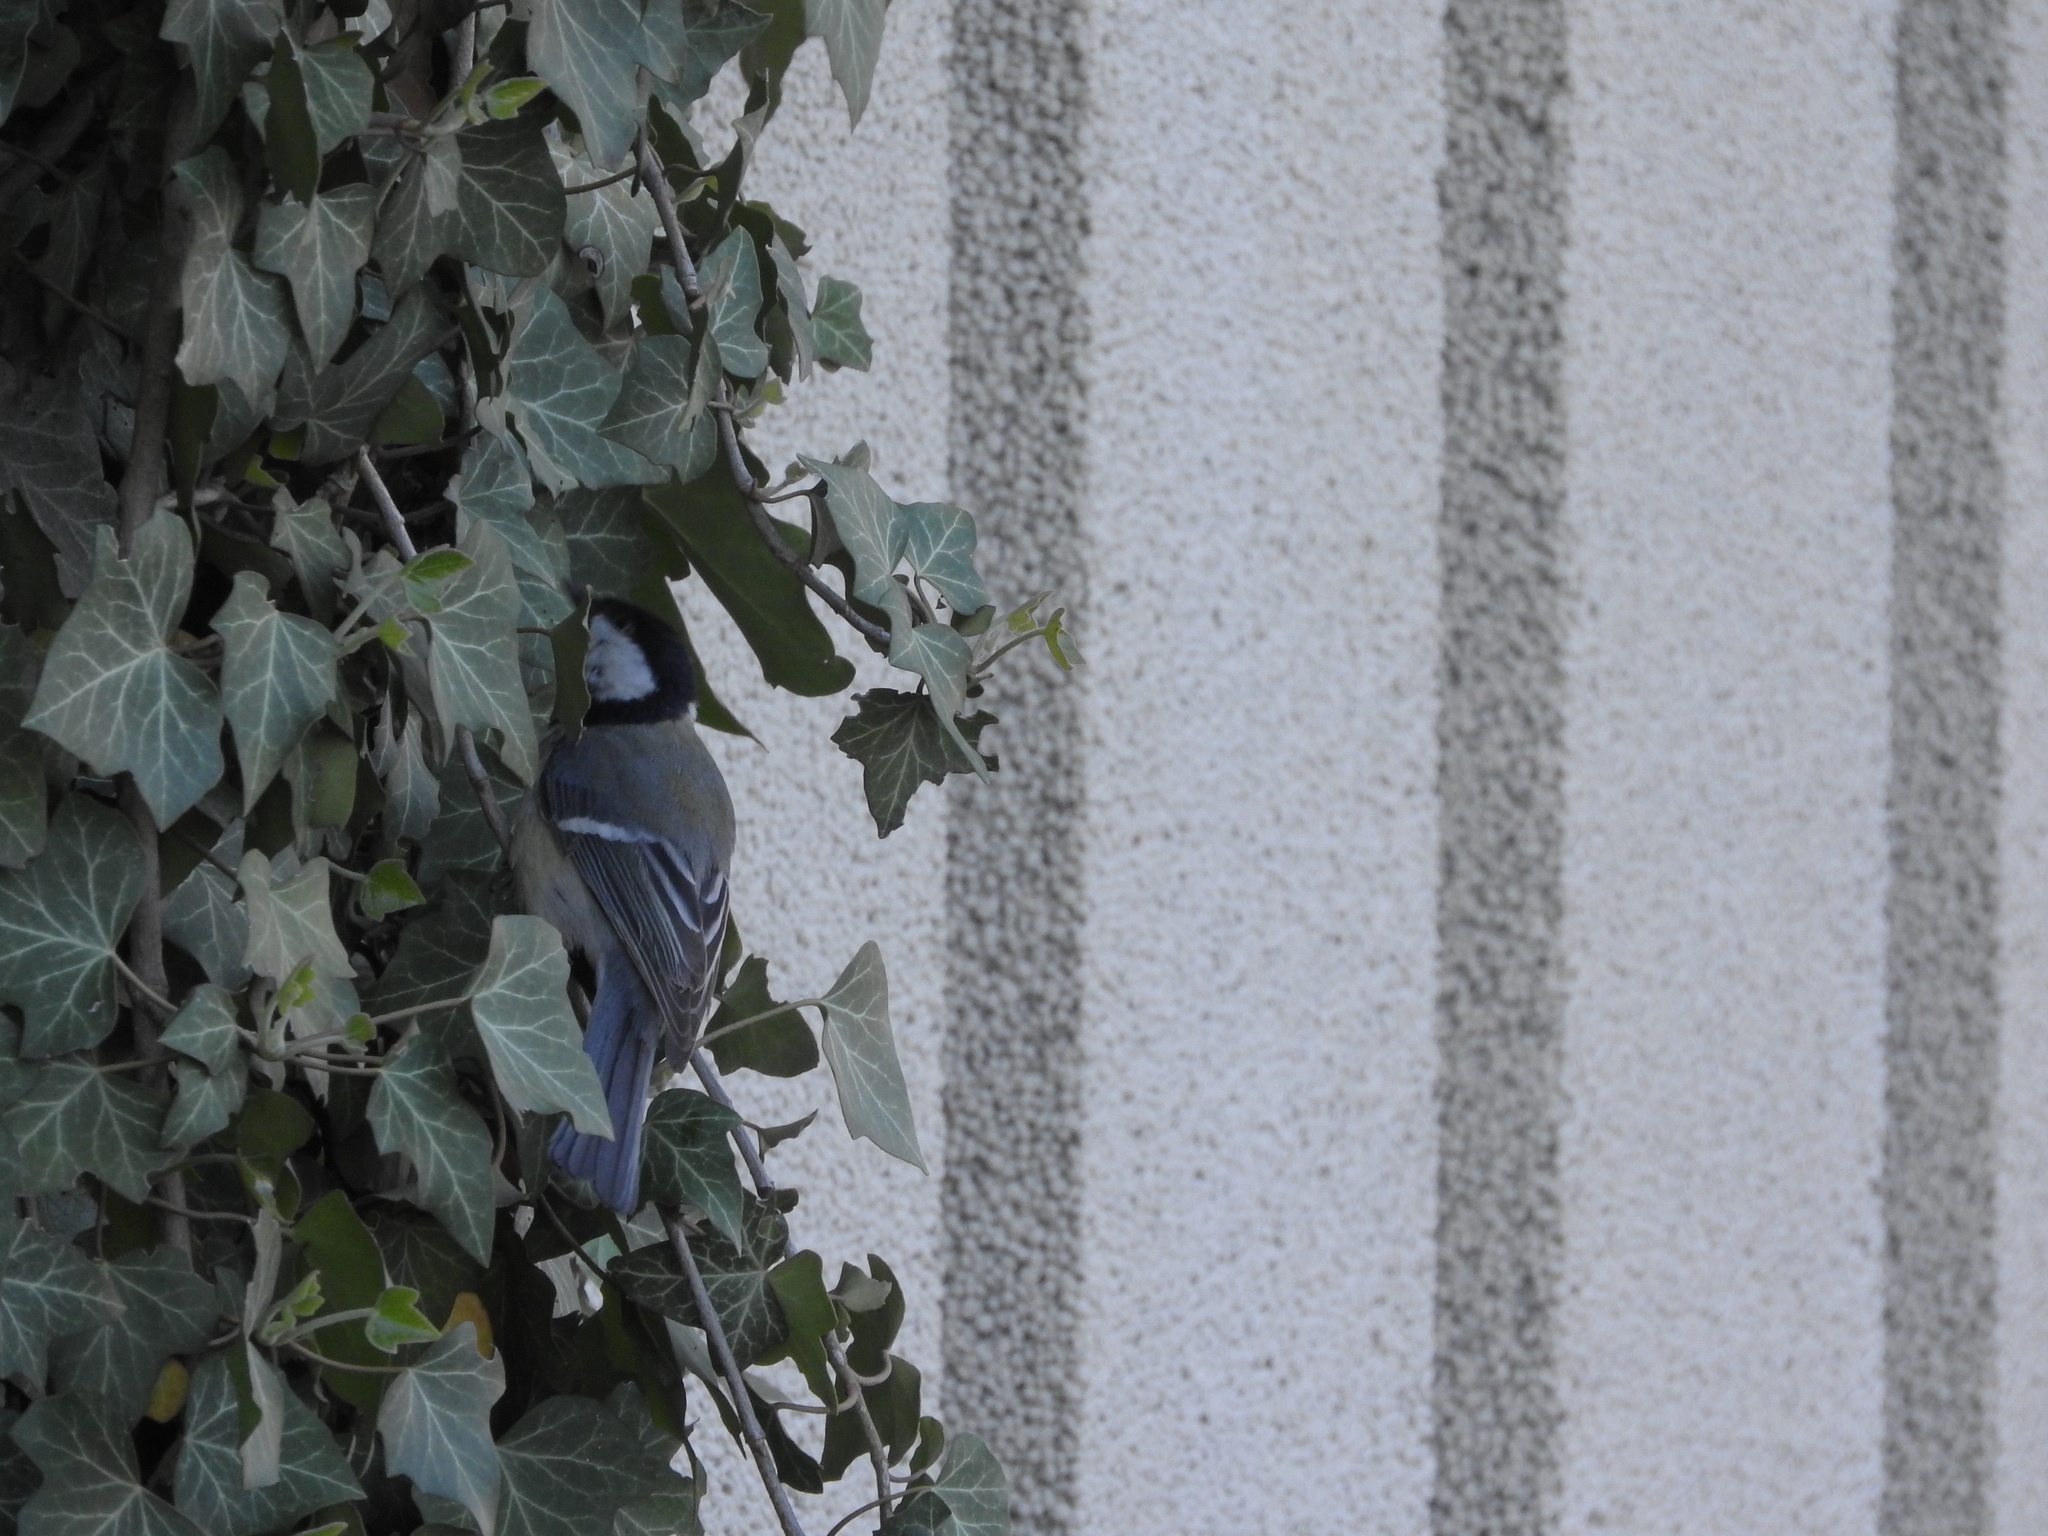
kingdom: Animalia
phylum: Chordata
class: Aves
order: Passeriformes
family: Paridae
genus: Parus
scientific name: Parus major
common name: Great tit
